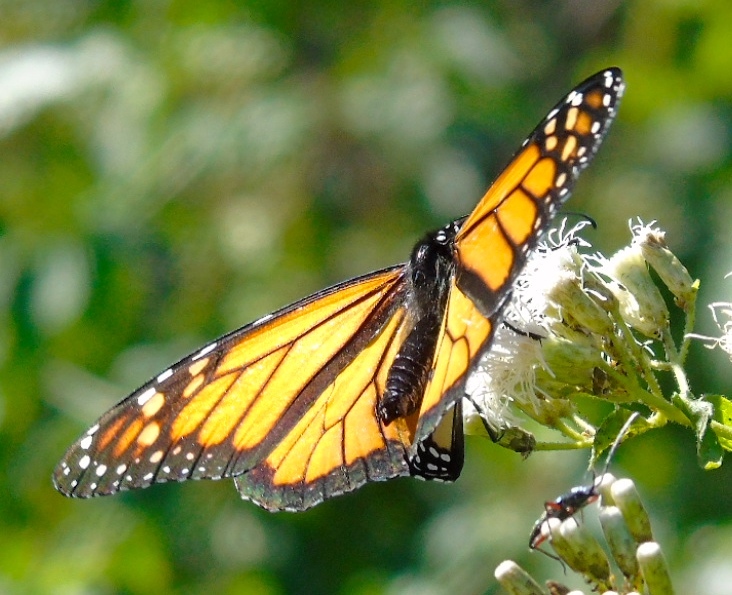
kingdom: Animalia
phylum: Arthropoda
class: Insecta
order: Lepidoptera
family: Nymphalidae
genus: Danaus
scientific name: Danaus plexippus
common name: Monarch
